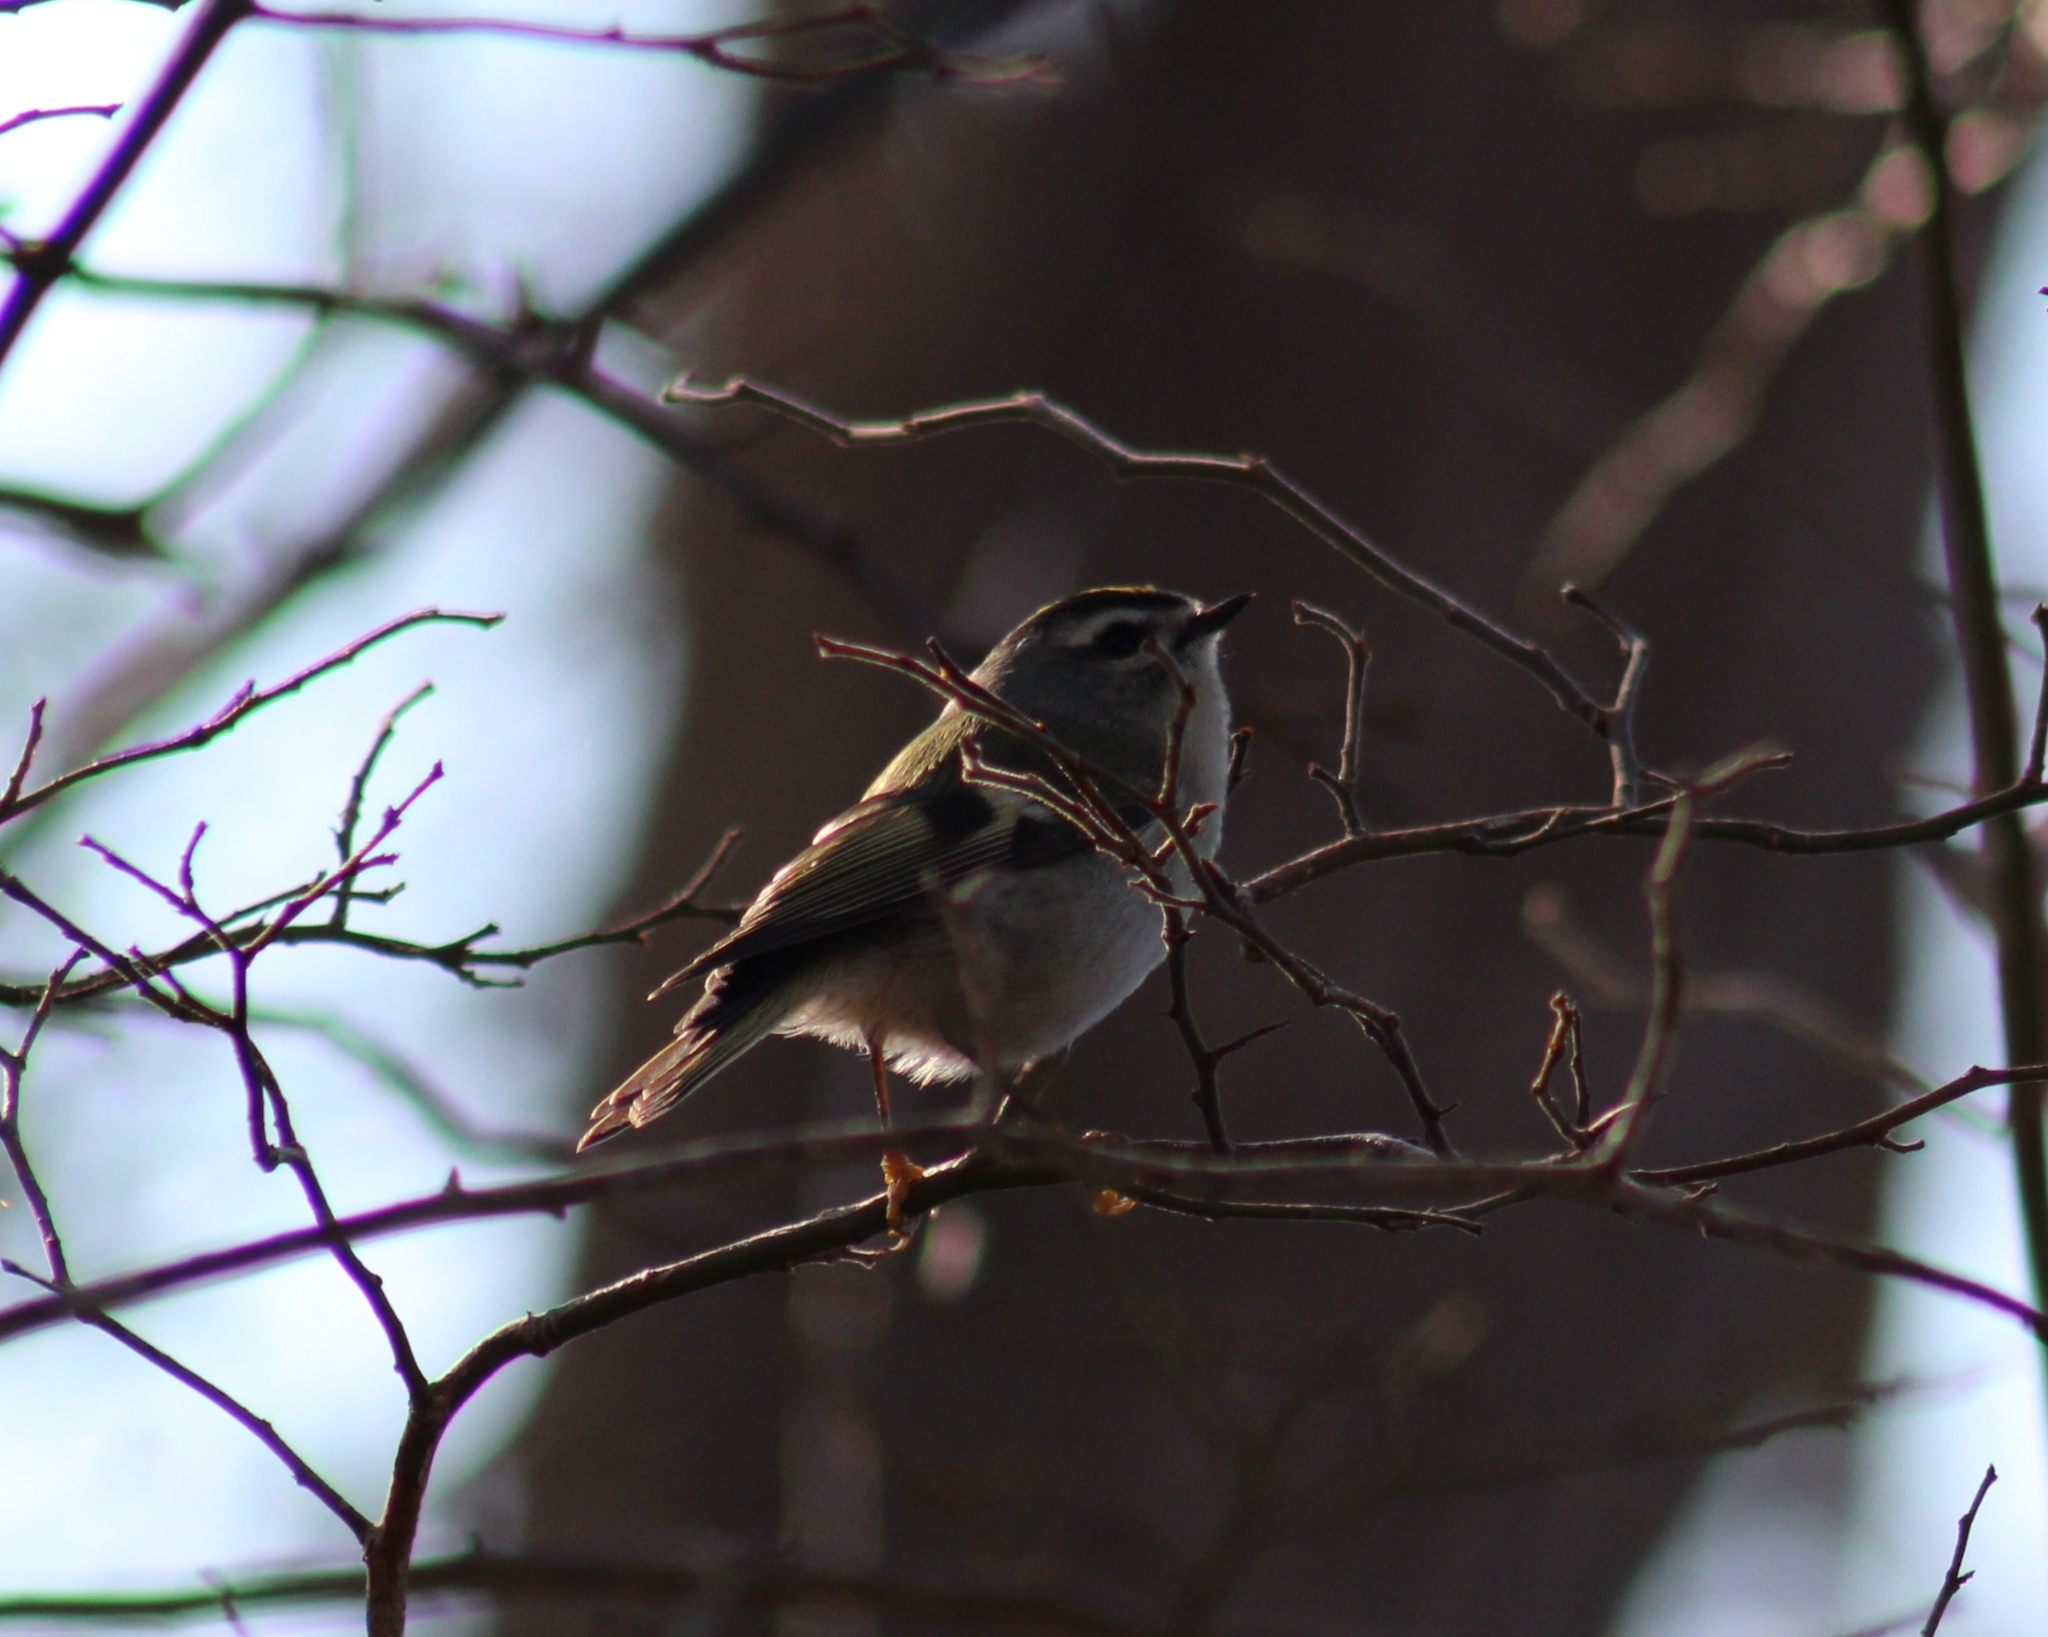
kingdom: Animalia
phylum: Chordata
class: Aves
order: Passeriformes
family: Regulidae
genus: Regulus
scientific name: Regulus satrapa
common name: Golden-crowned kinglet
